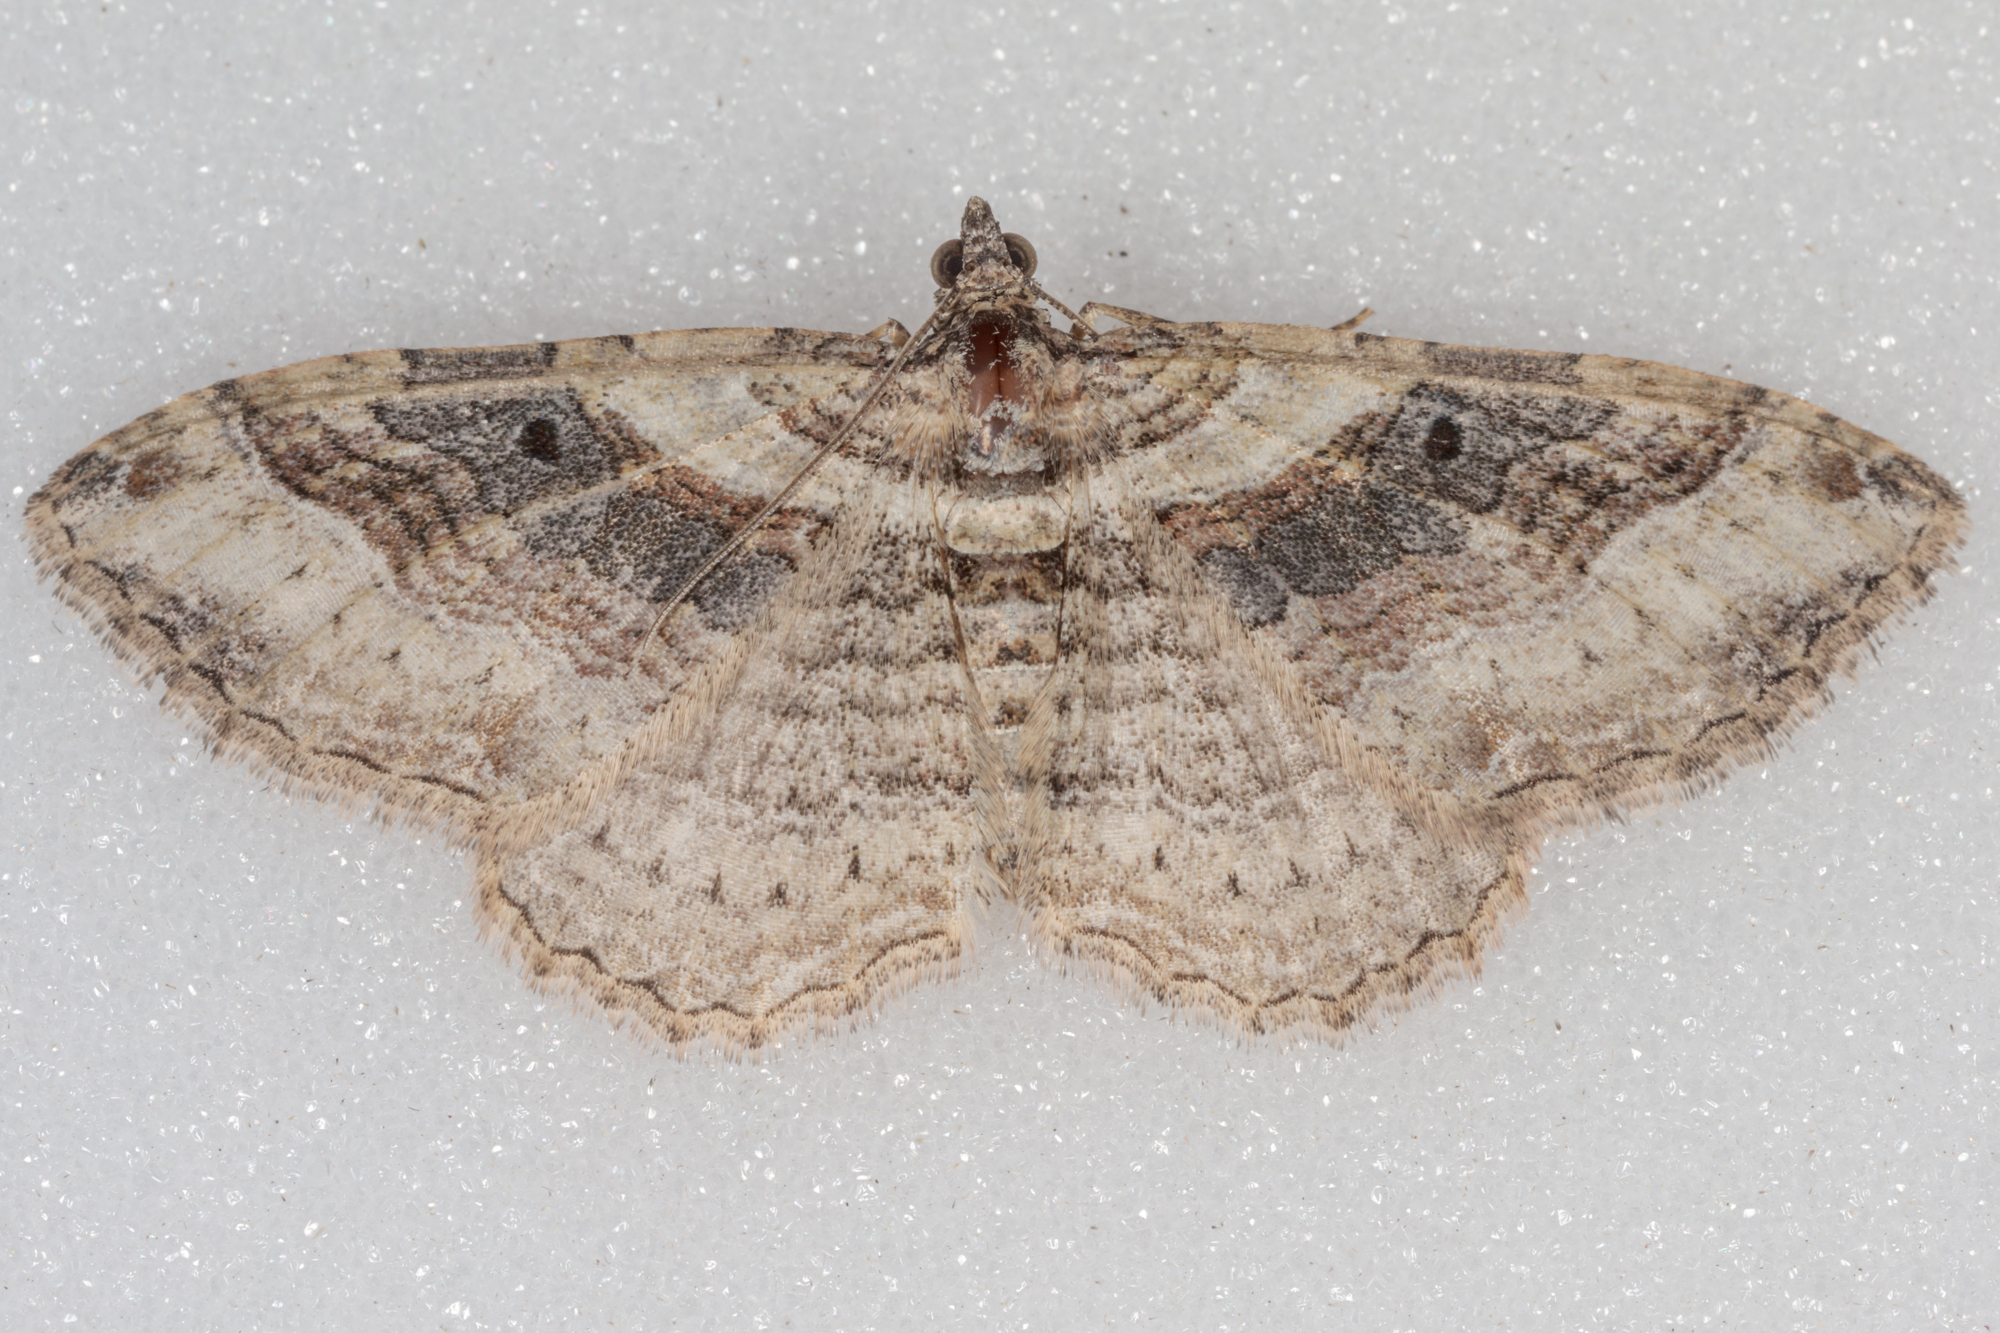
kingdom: Animalia
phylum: Arthropoda
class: Insecta
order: Lepidoptera
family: Geometridae
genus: Costaconvexa
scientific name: Costaconvexa centrostrigaria
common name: Bent-line carpet
